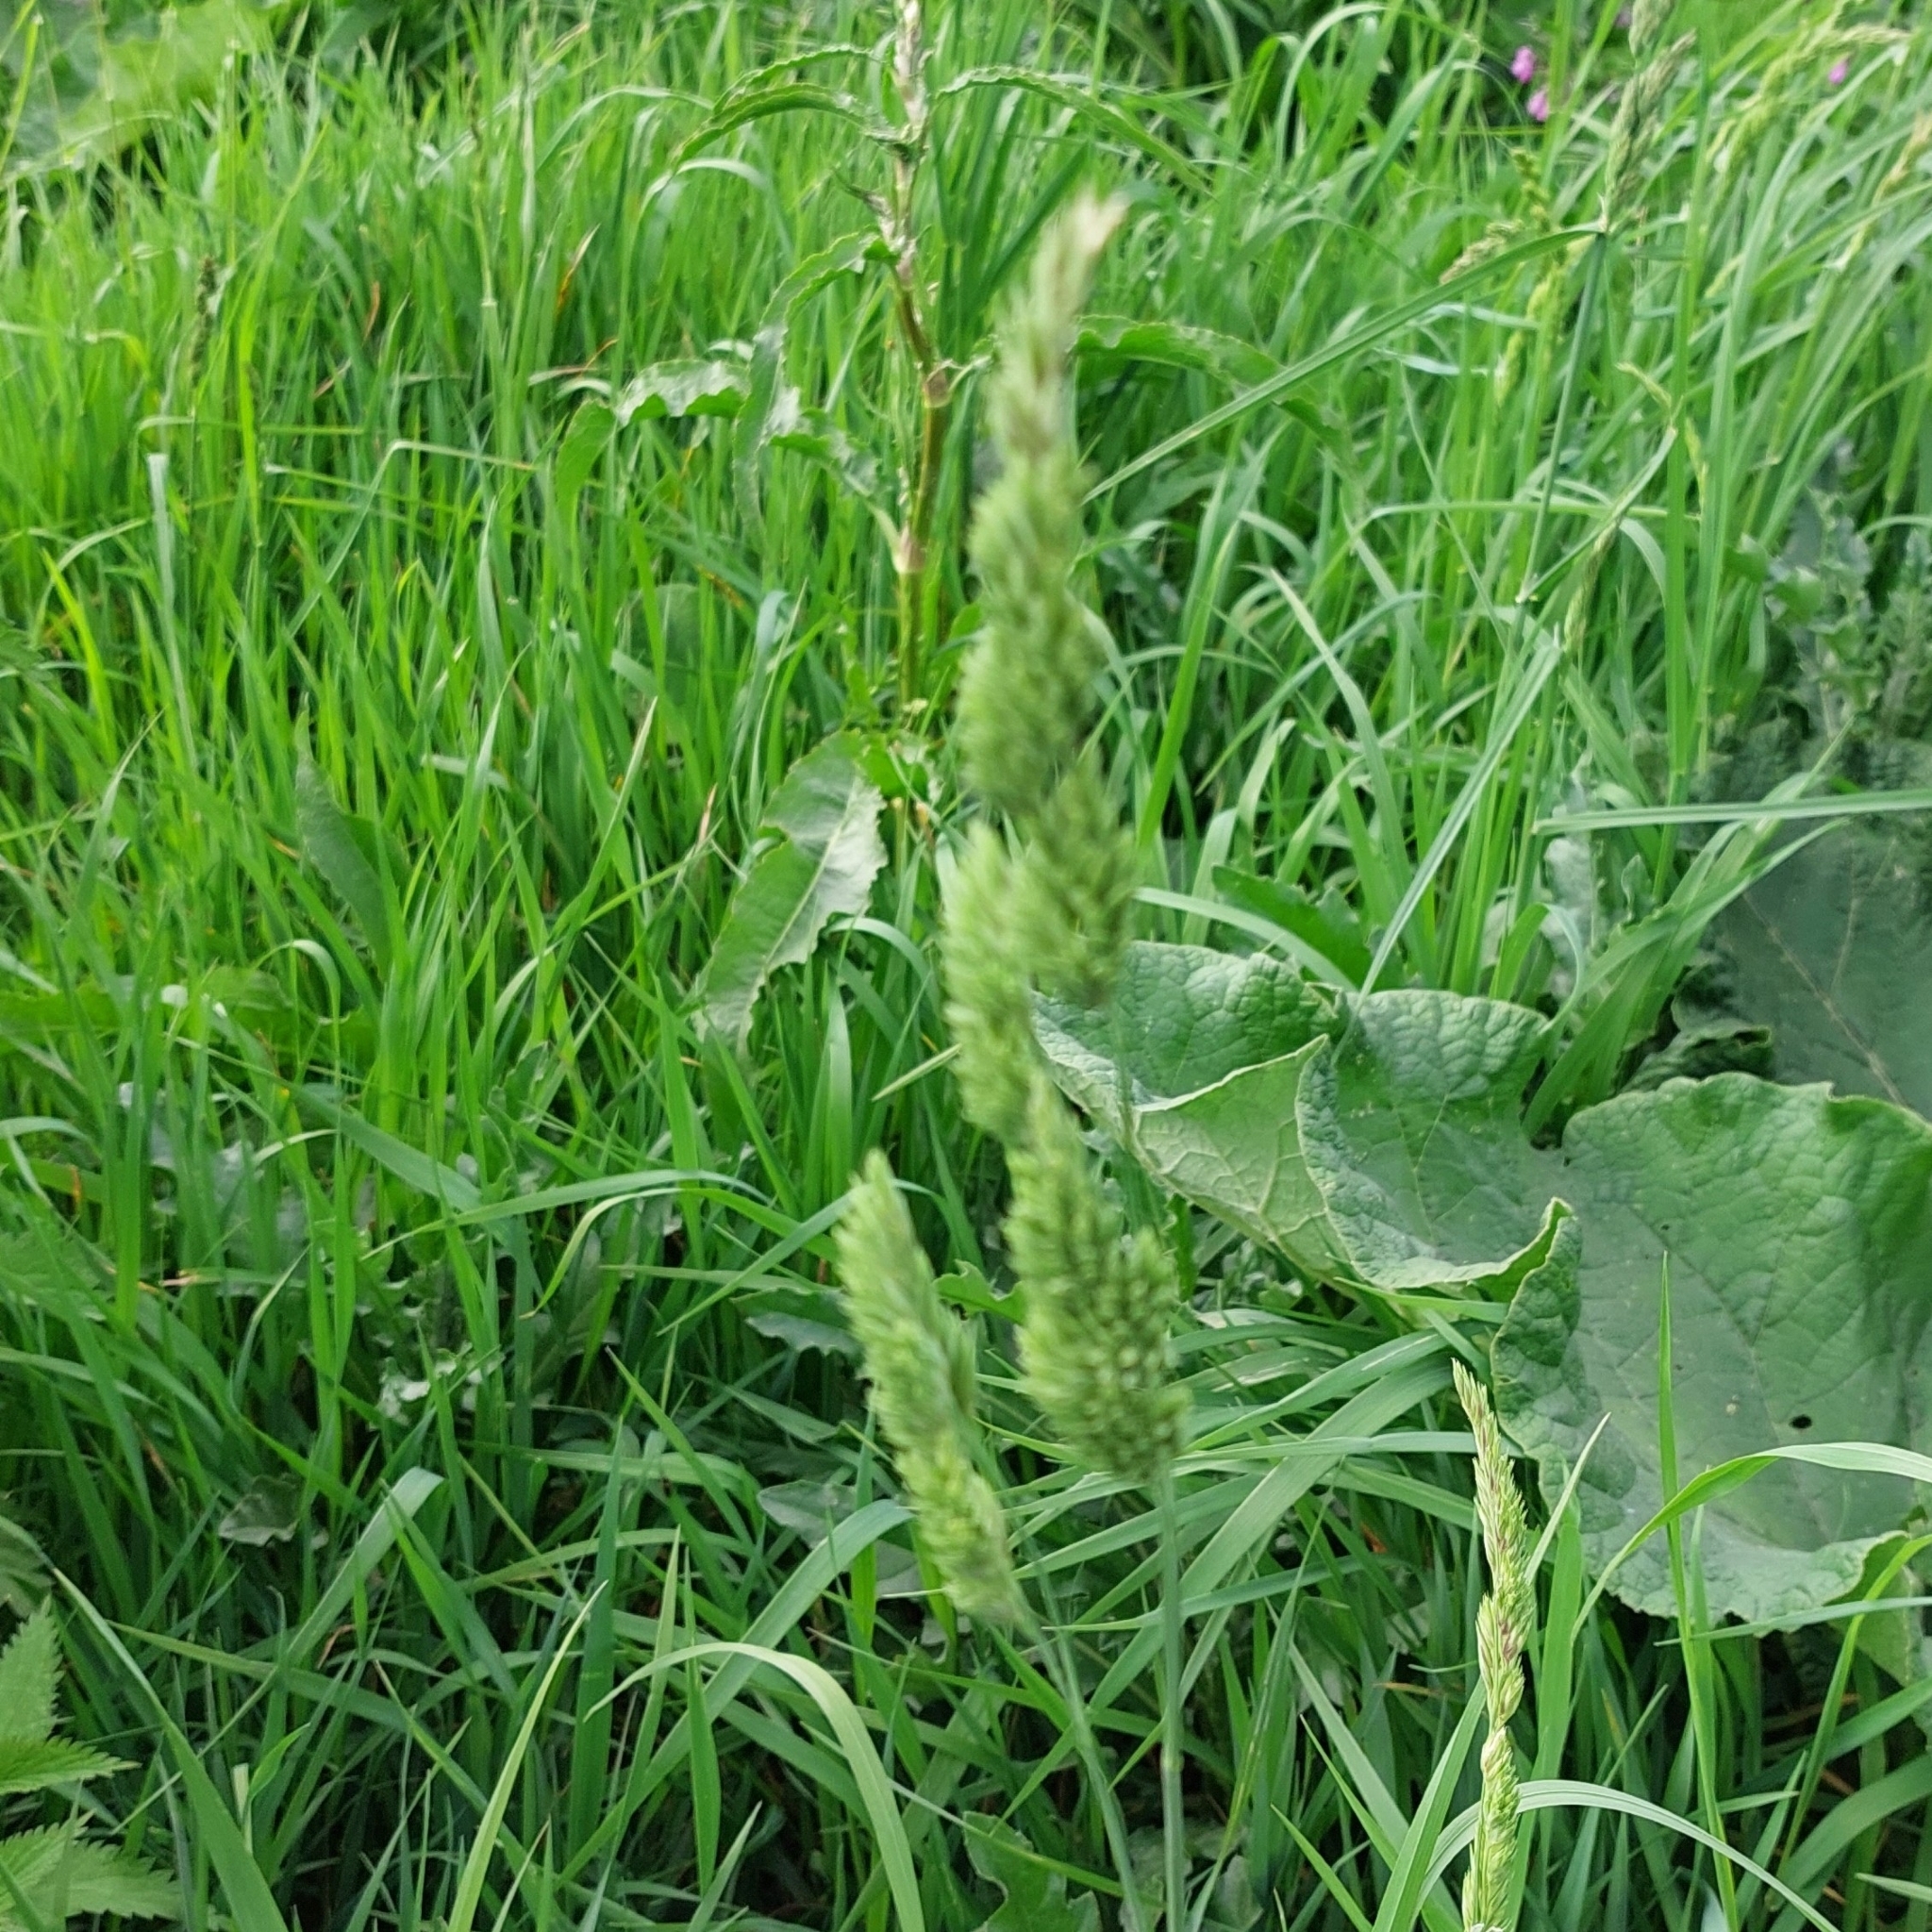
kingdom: Plantae
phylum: Tracheophyta
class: Liliopsida
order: Poales
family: Poaceae
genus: Dactylis
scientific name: Dactylis glomerata
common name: Orchardgrass
